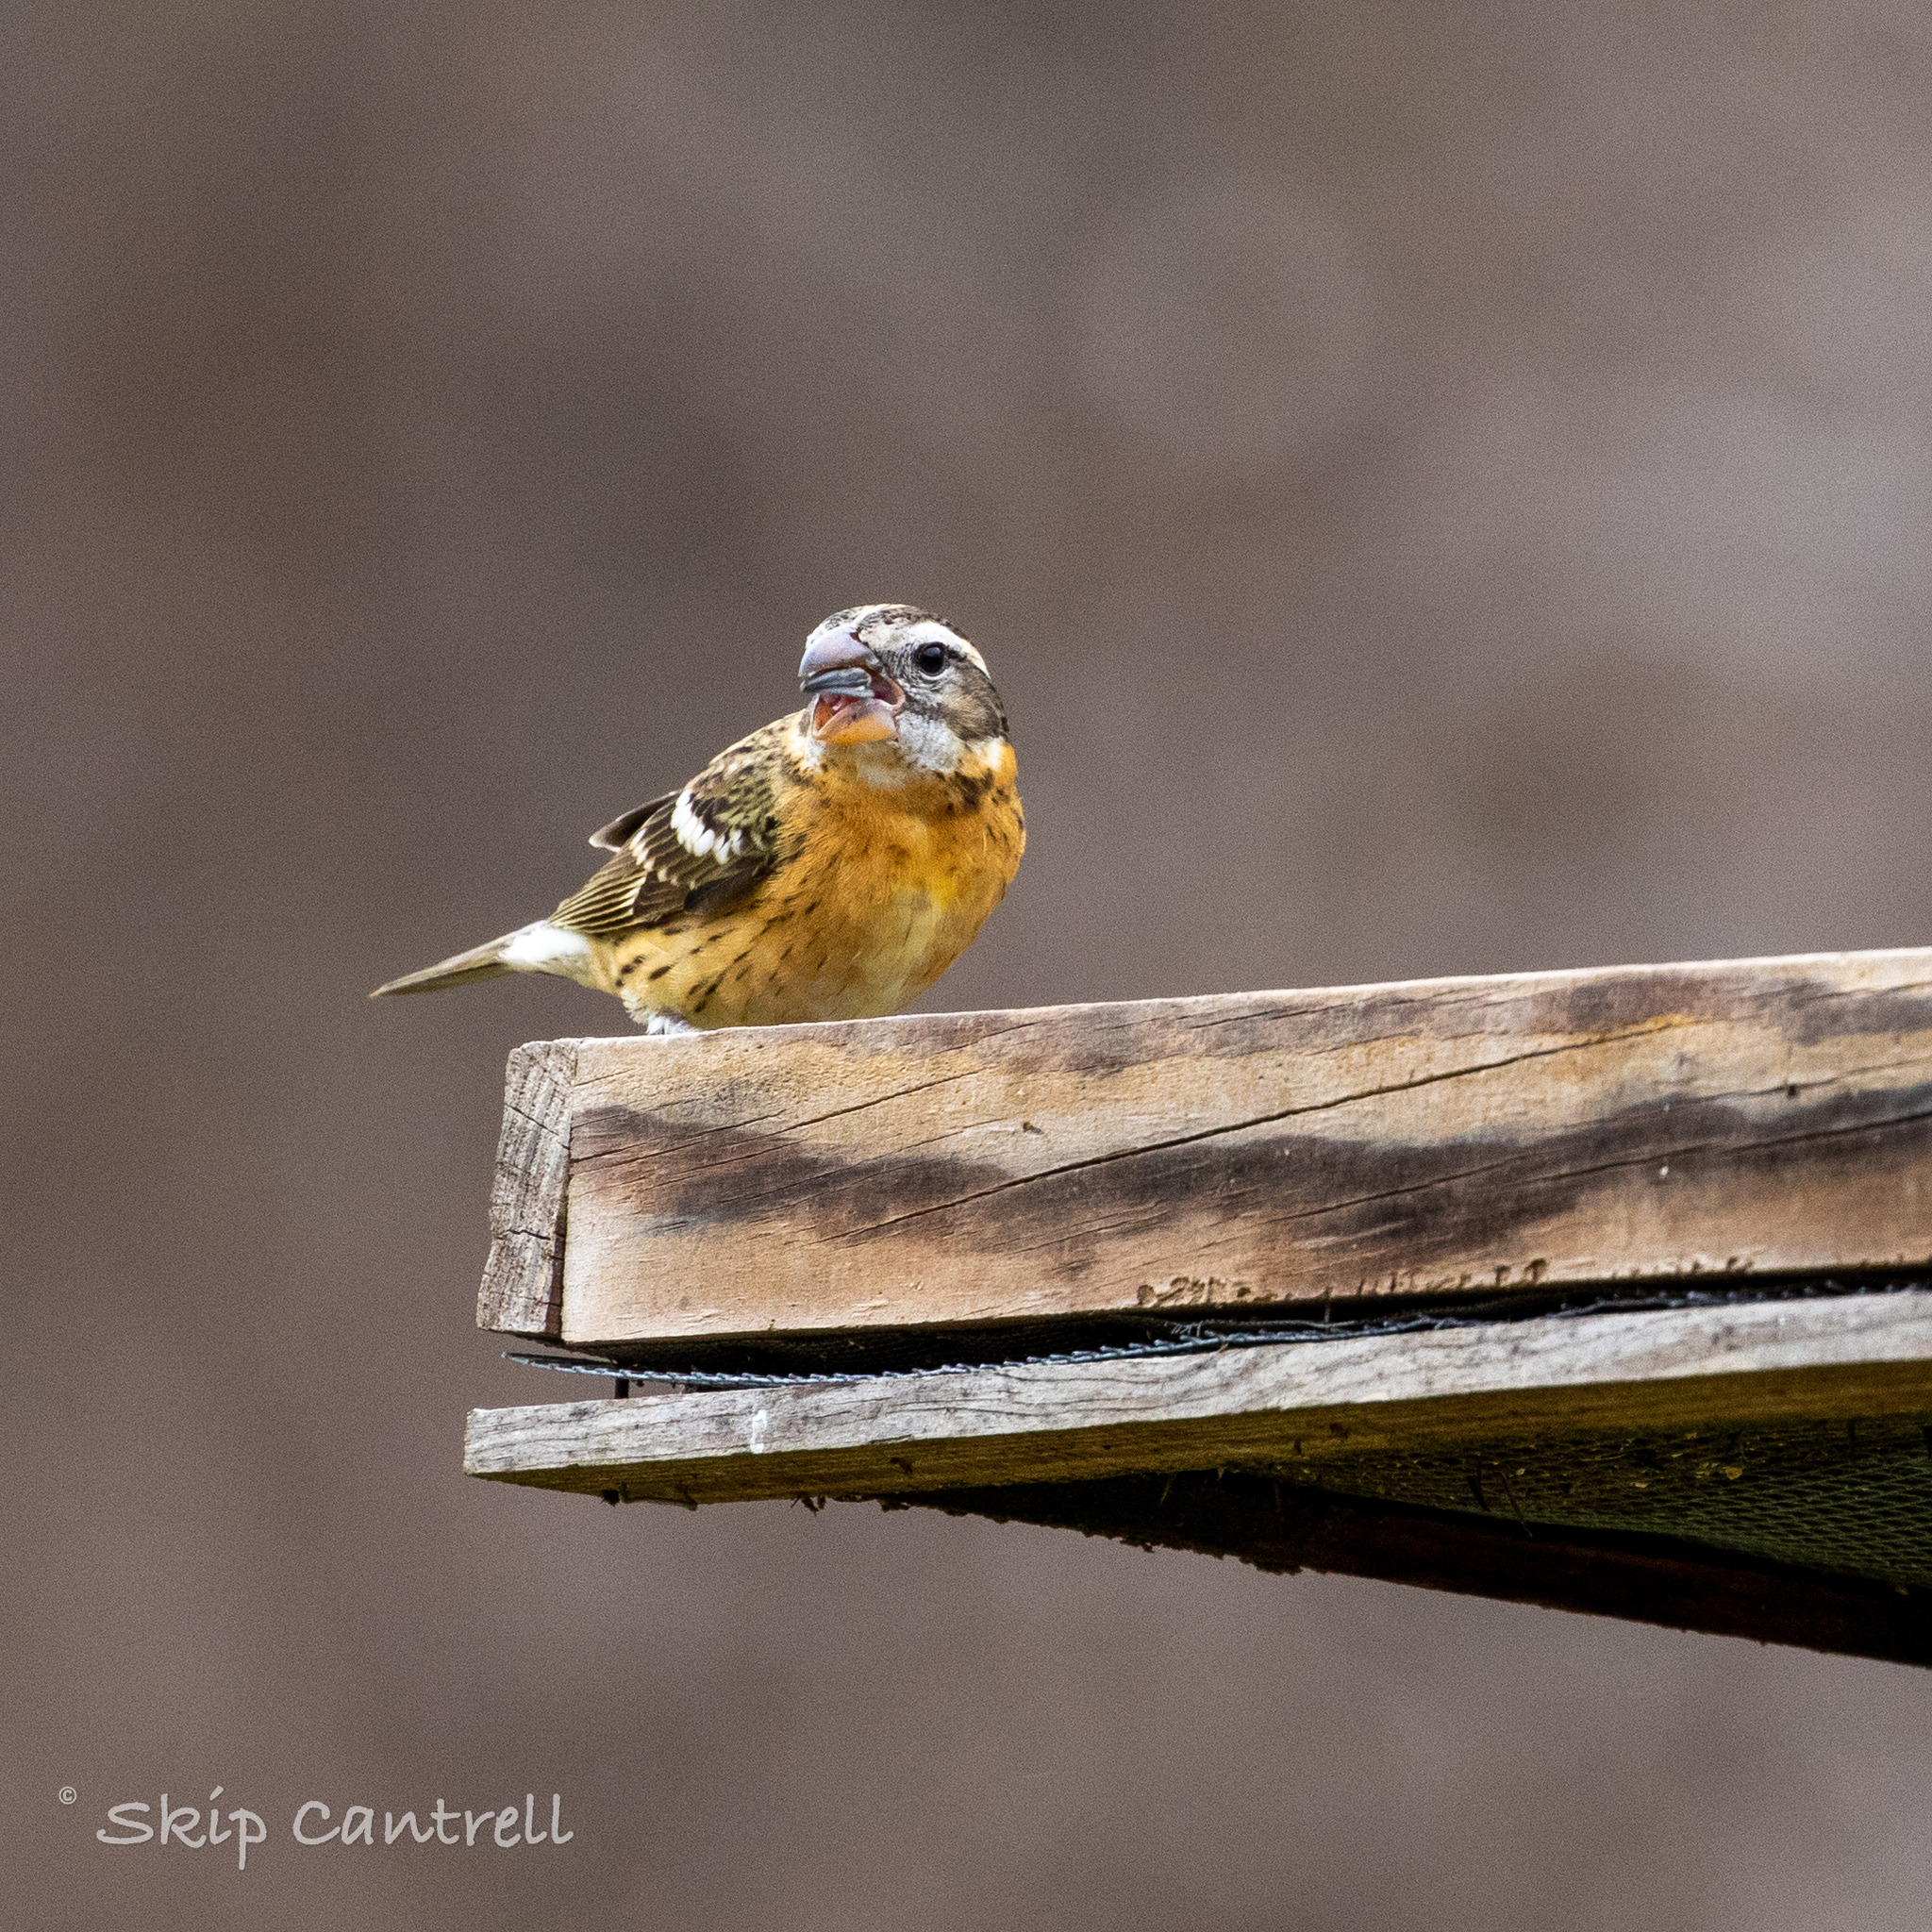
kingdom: Animalia
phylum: Chordata
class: Aves
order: Passeriformes
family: Cardinalidae
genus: Pheucticus
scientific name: Pheucticus melanocephalus
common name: Black-headed grosbeak
